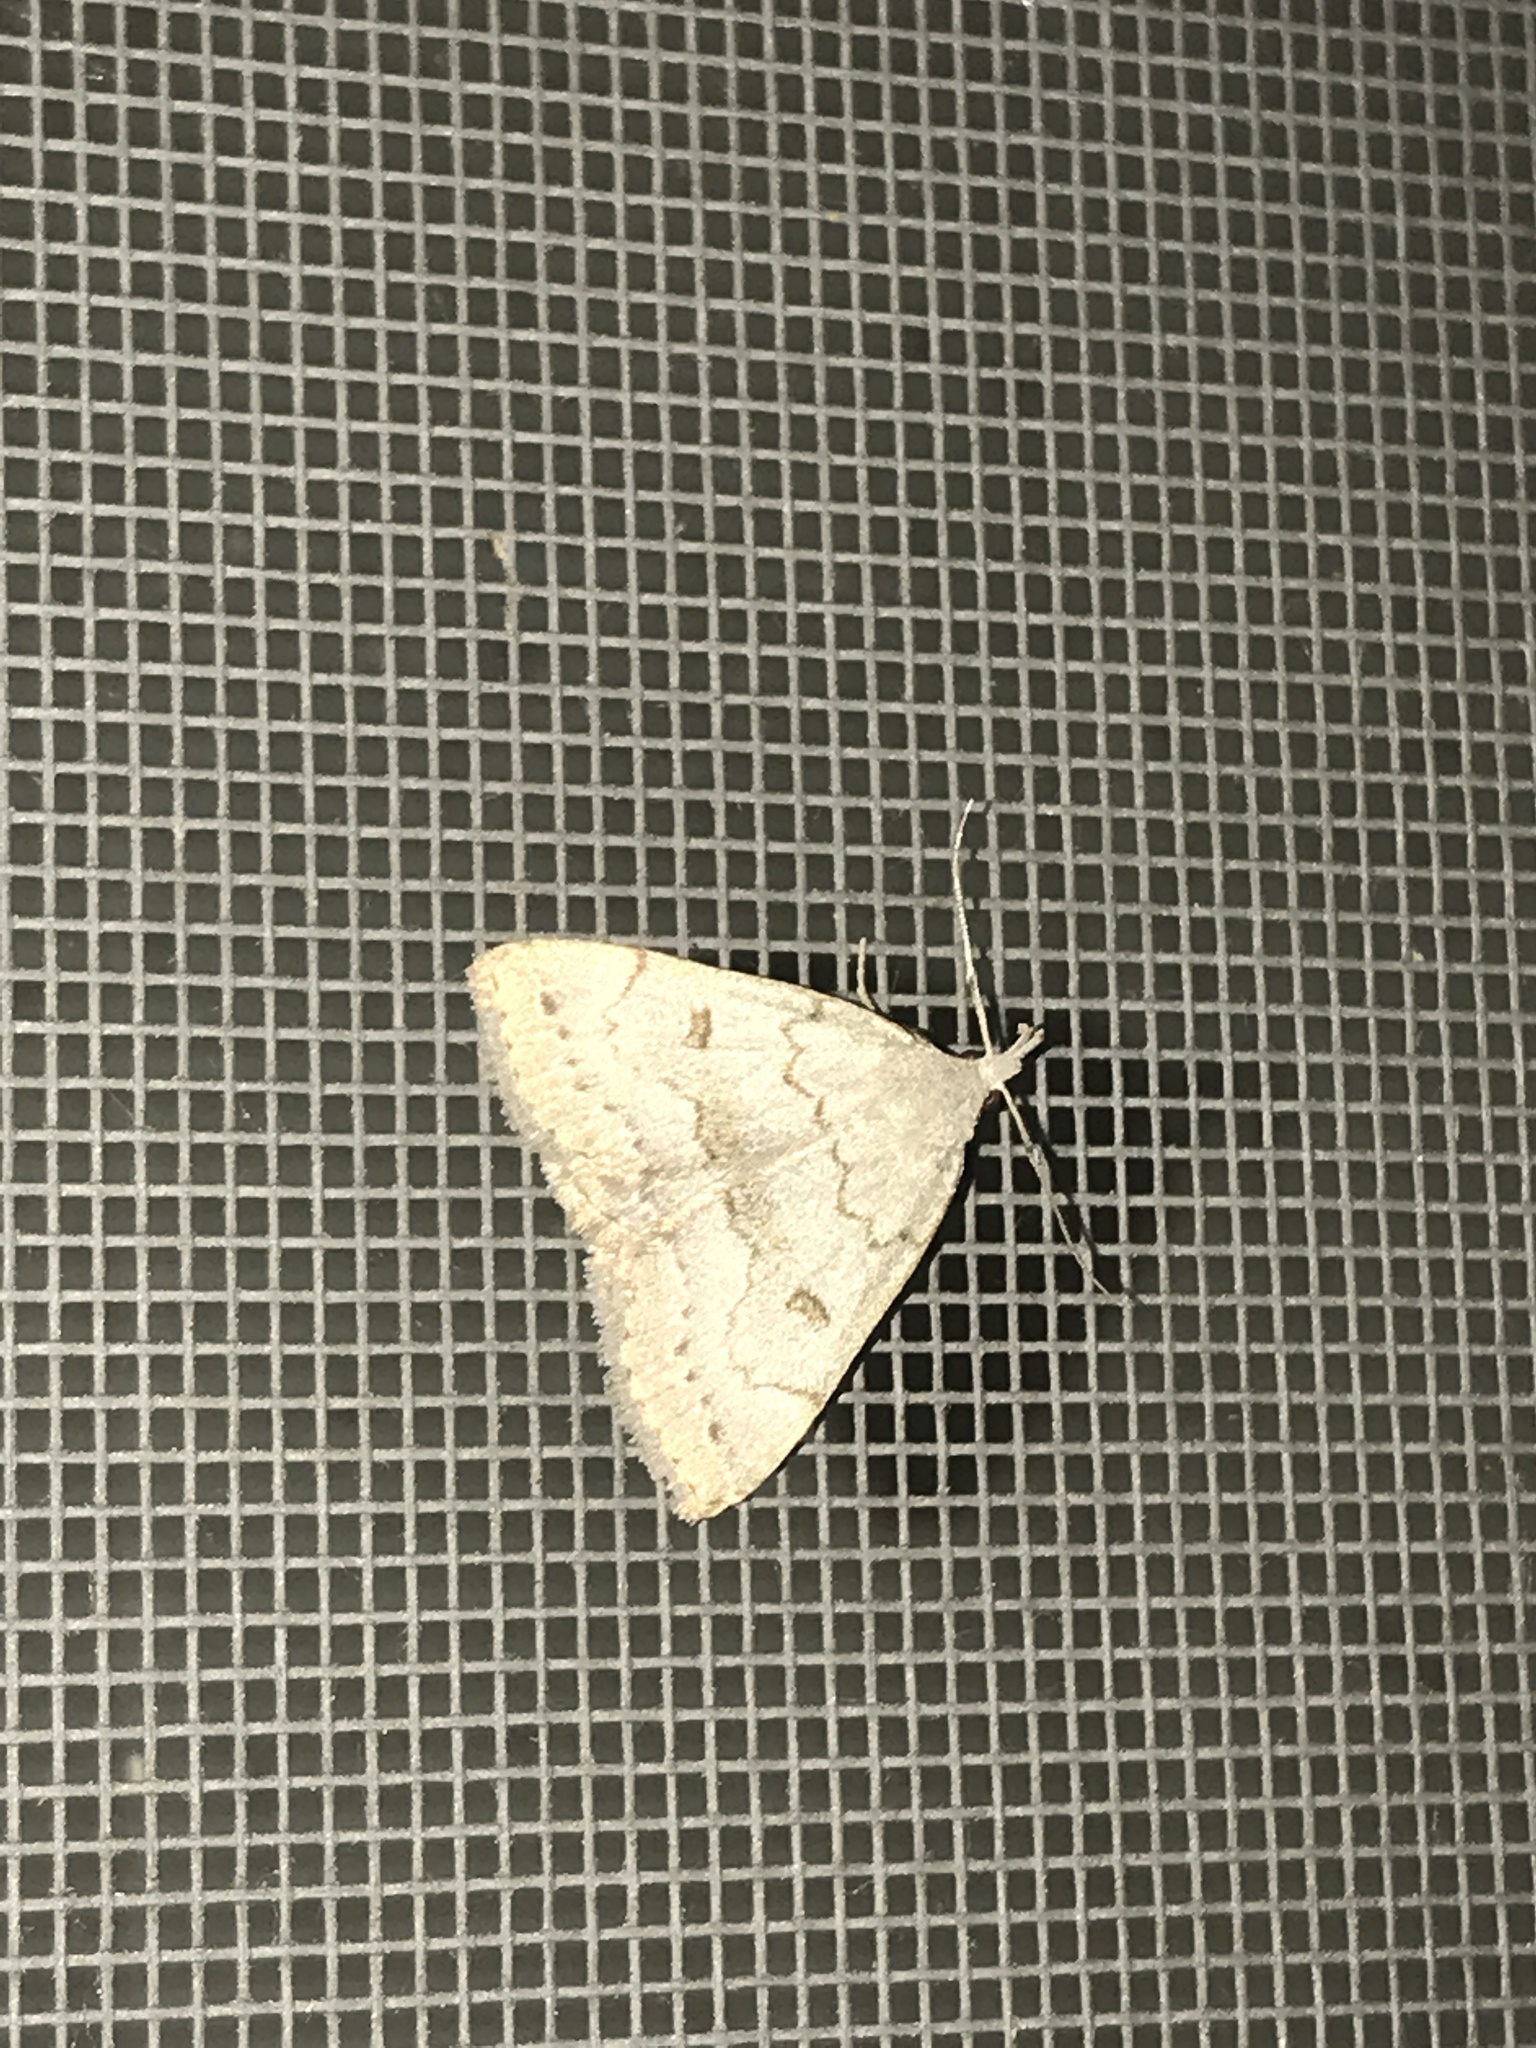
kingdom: Animalia
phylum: Arthropoda
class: Insecta
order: Lepidoptera
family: Erebidae
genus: Macrochilo
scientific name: Macrochilo morbidalis
